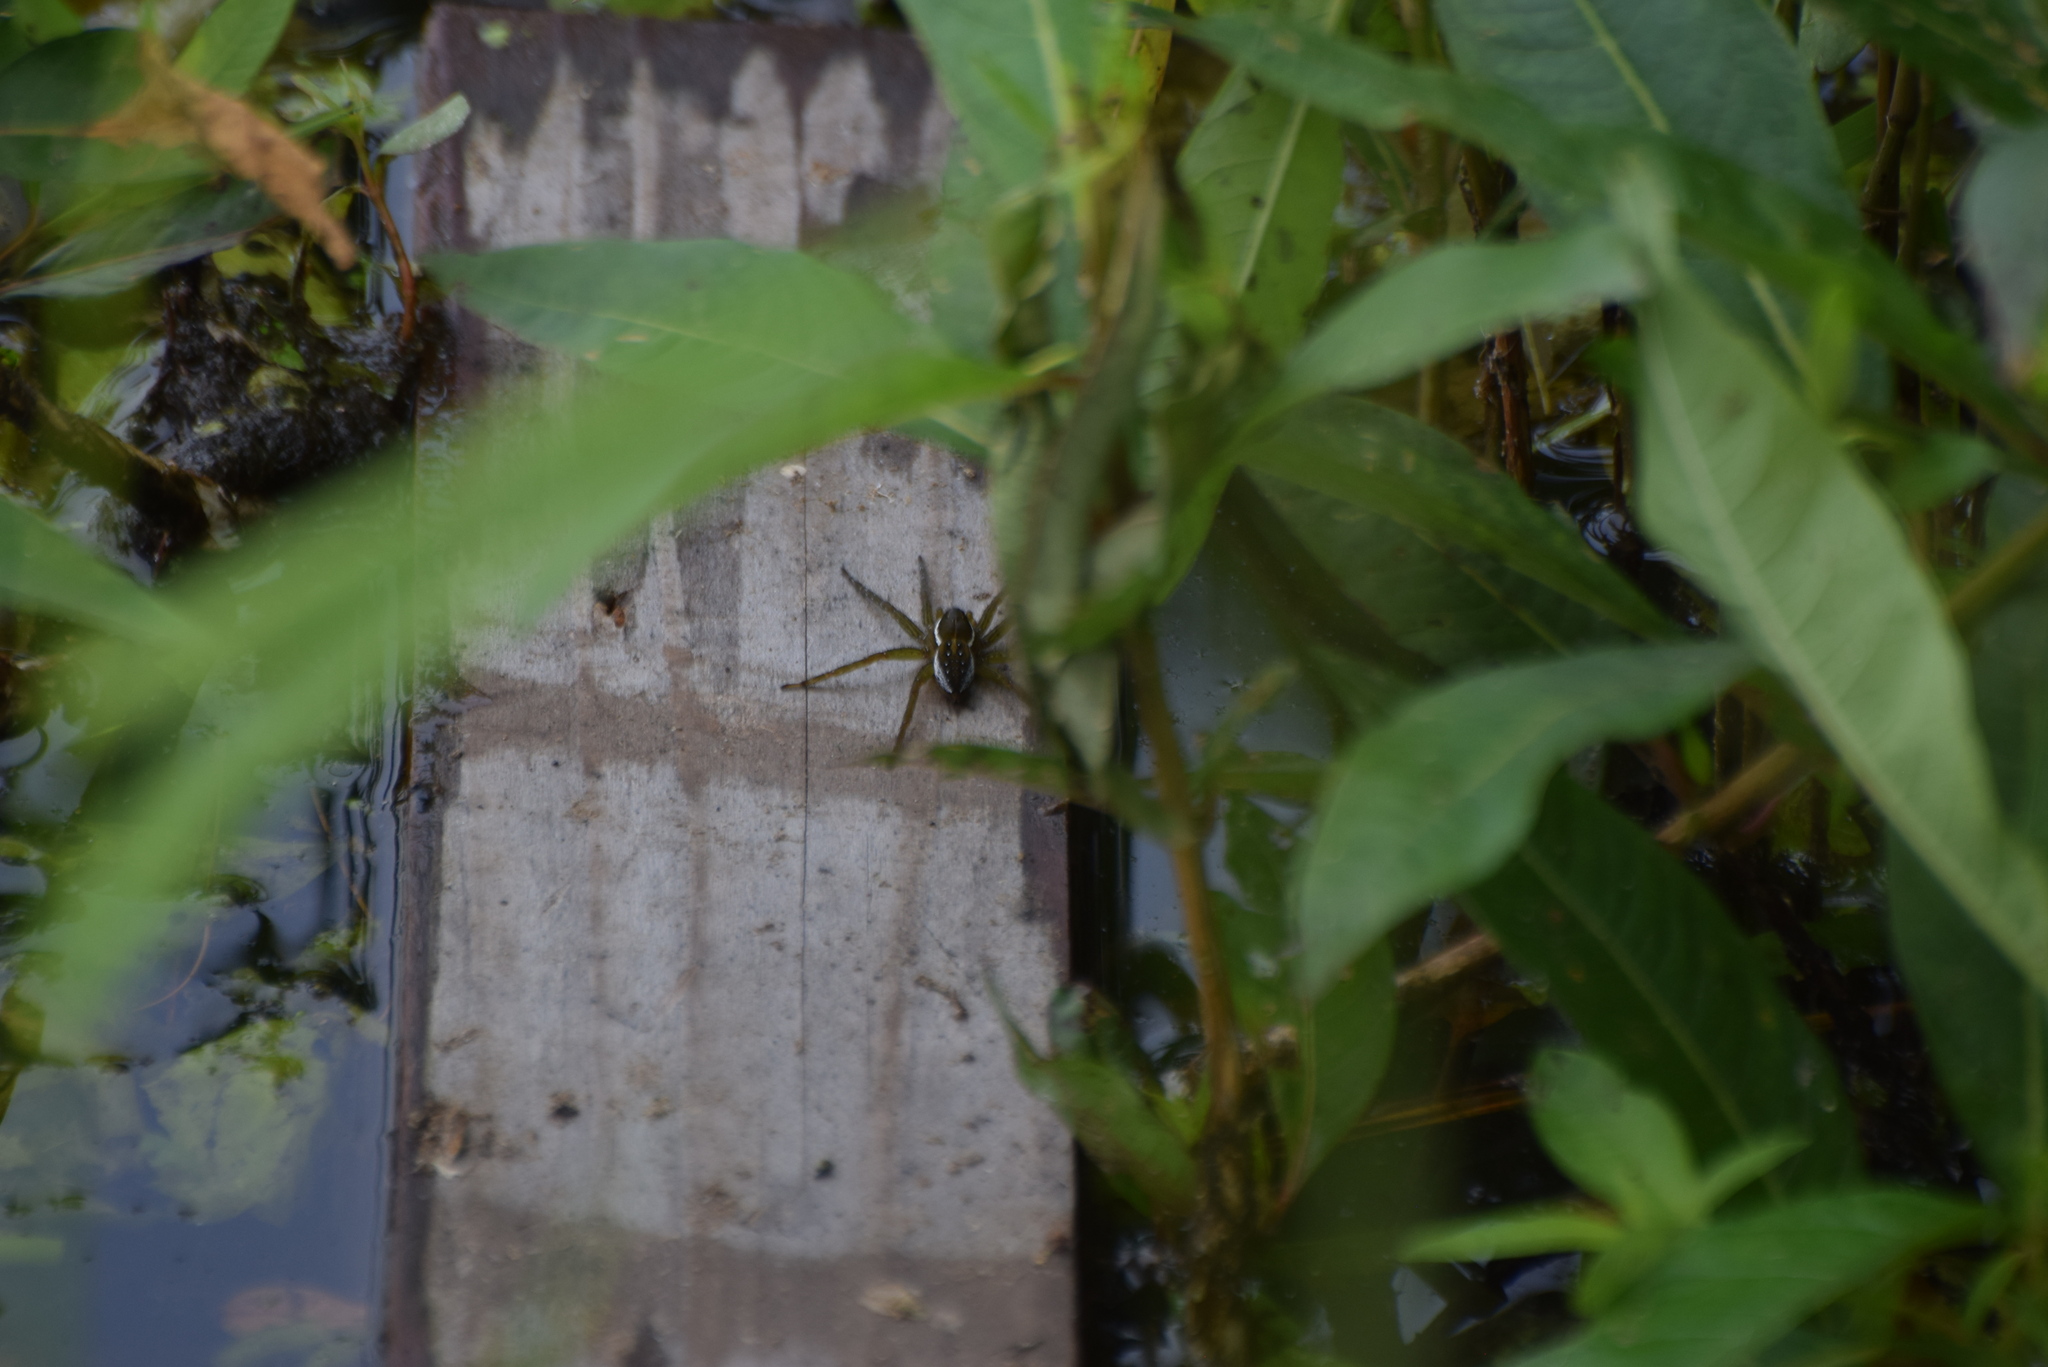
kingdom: Animalia
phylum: Arthropoda
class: Arachnida
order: Araneae
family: Pisauridae
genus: Dolomedes
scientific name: Dolomedes triton
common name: Six-spotted fishing spider
